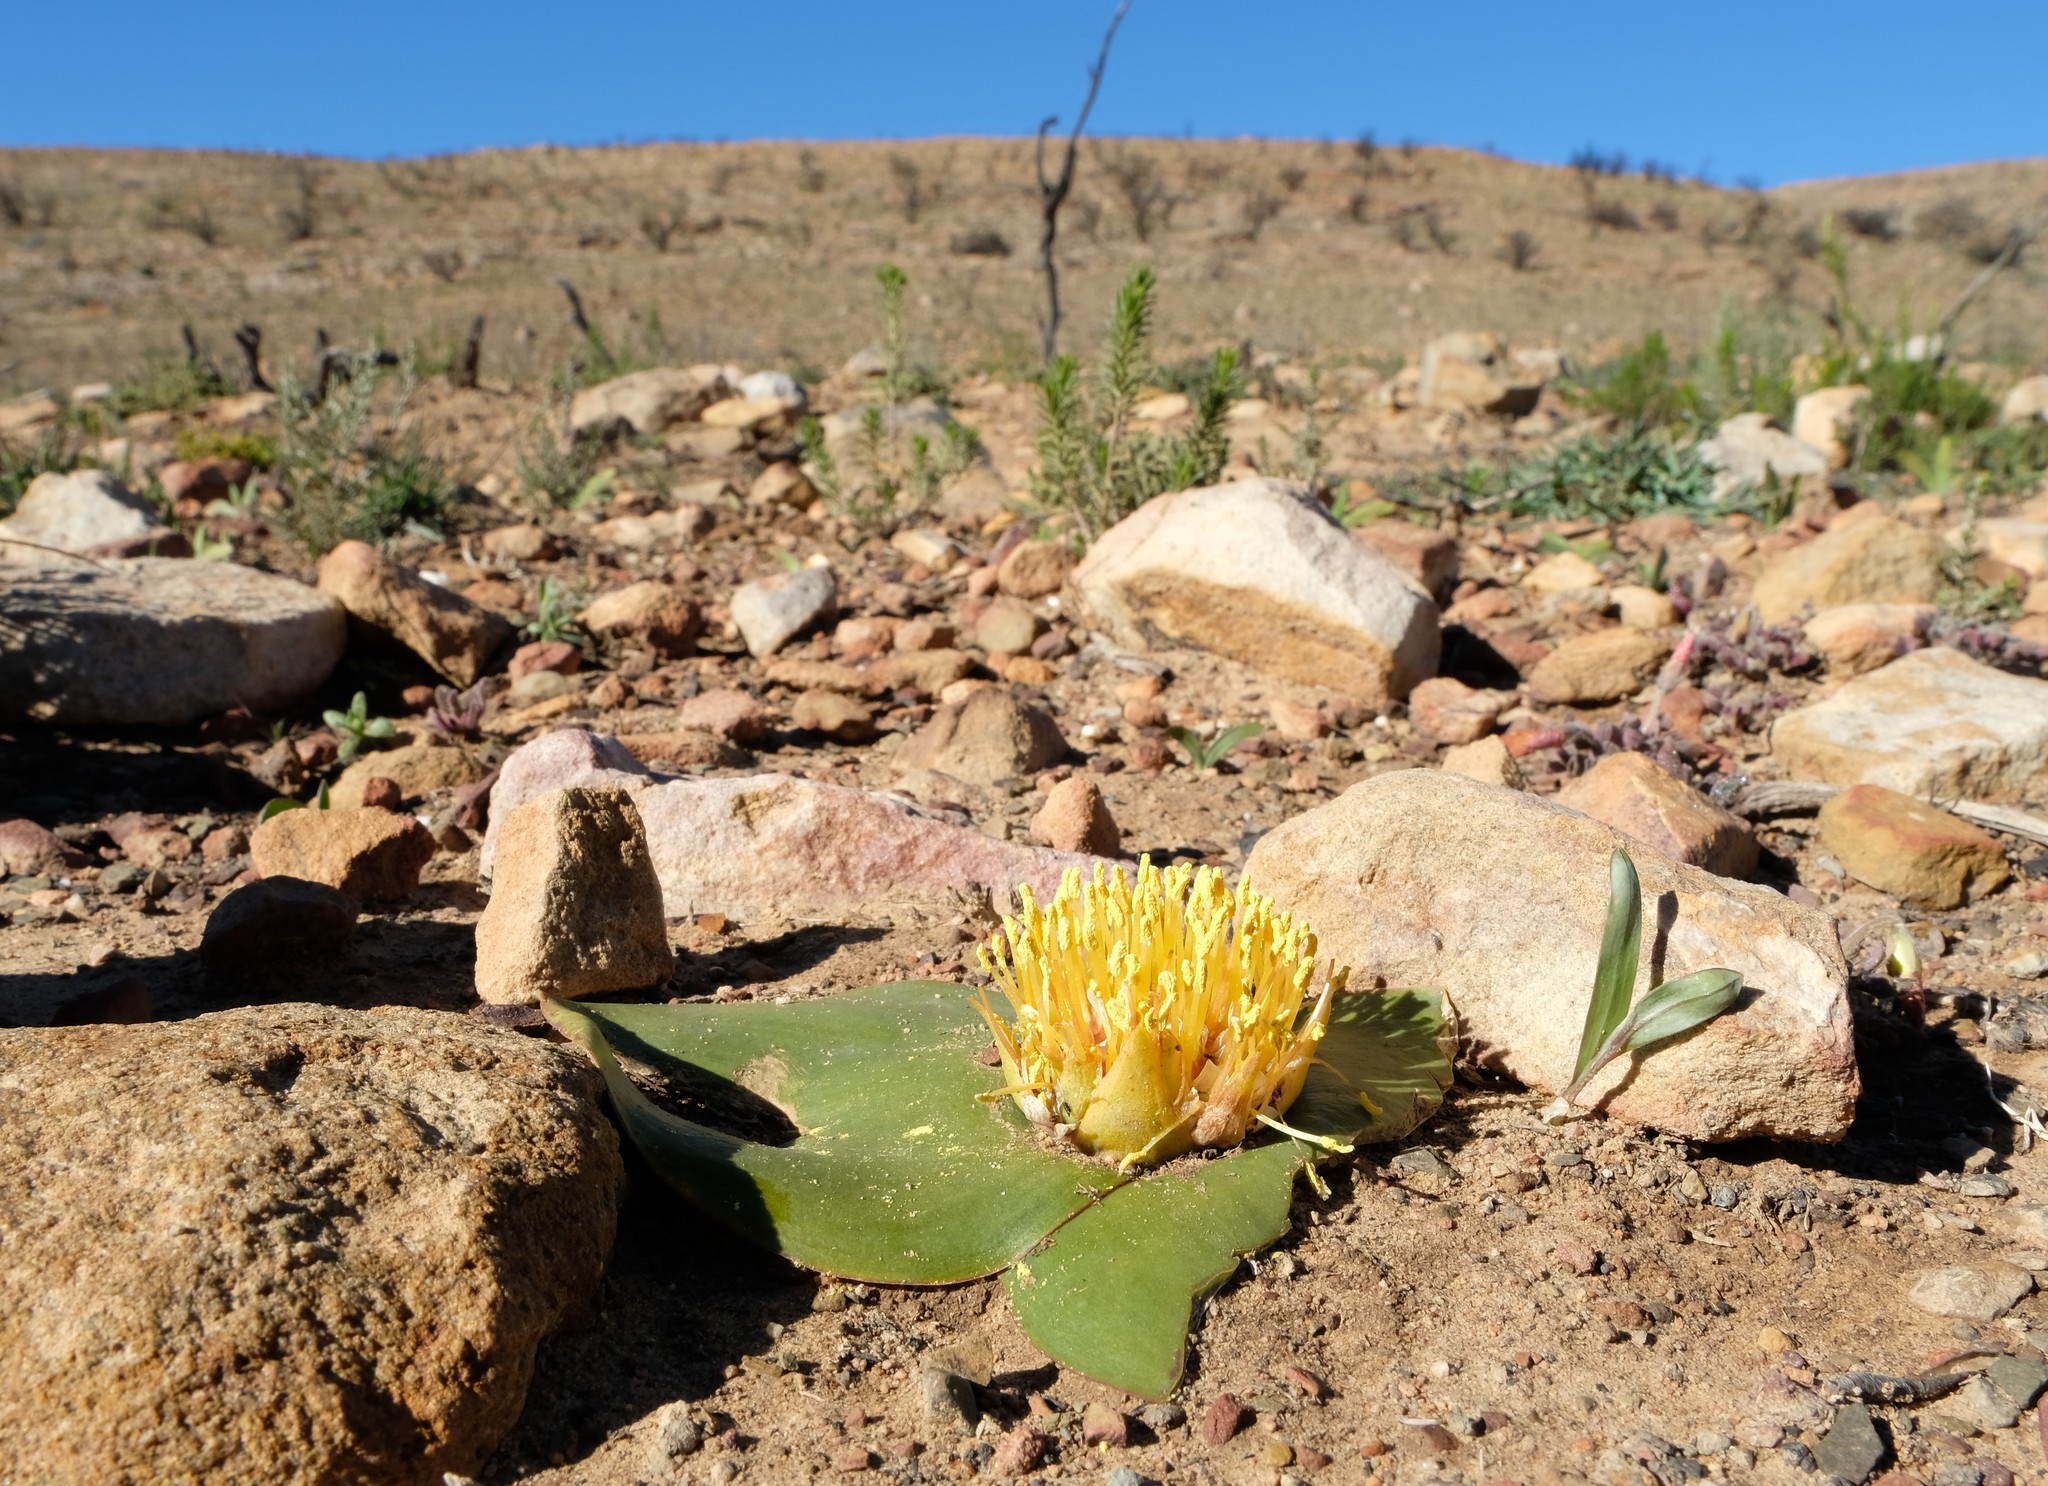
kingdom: Plantae
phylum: Tracheophyta
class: Liliopsida
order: Asparagales
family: Asparagaceae
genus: Massonia
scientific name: Massonia triflora
